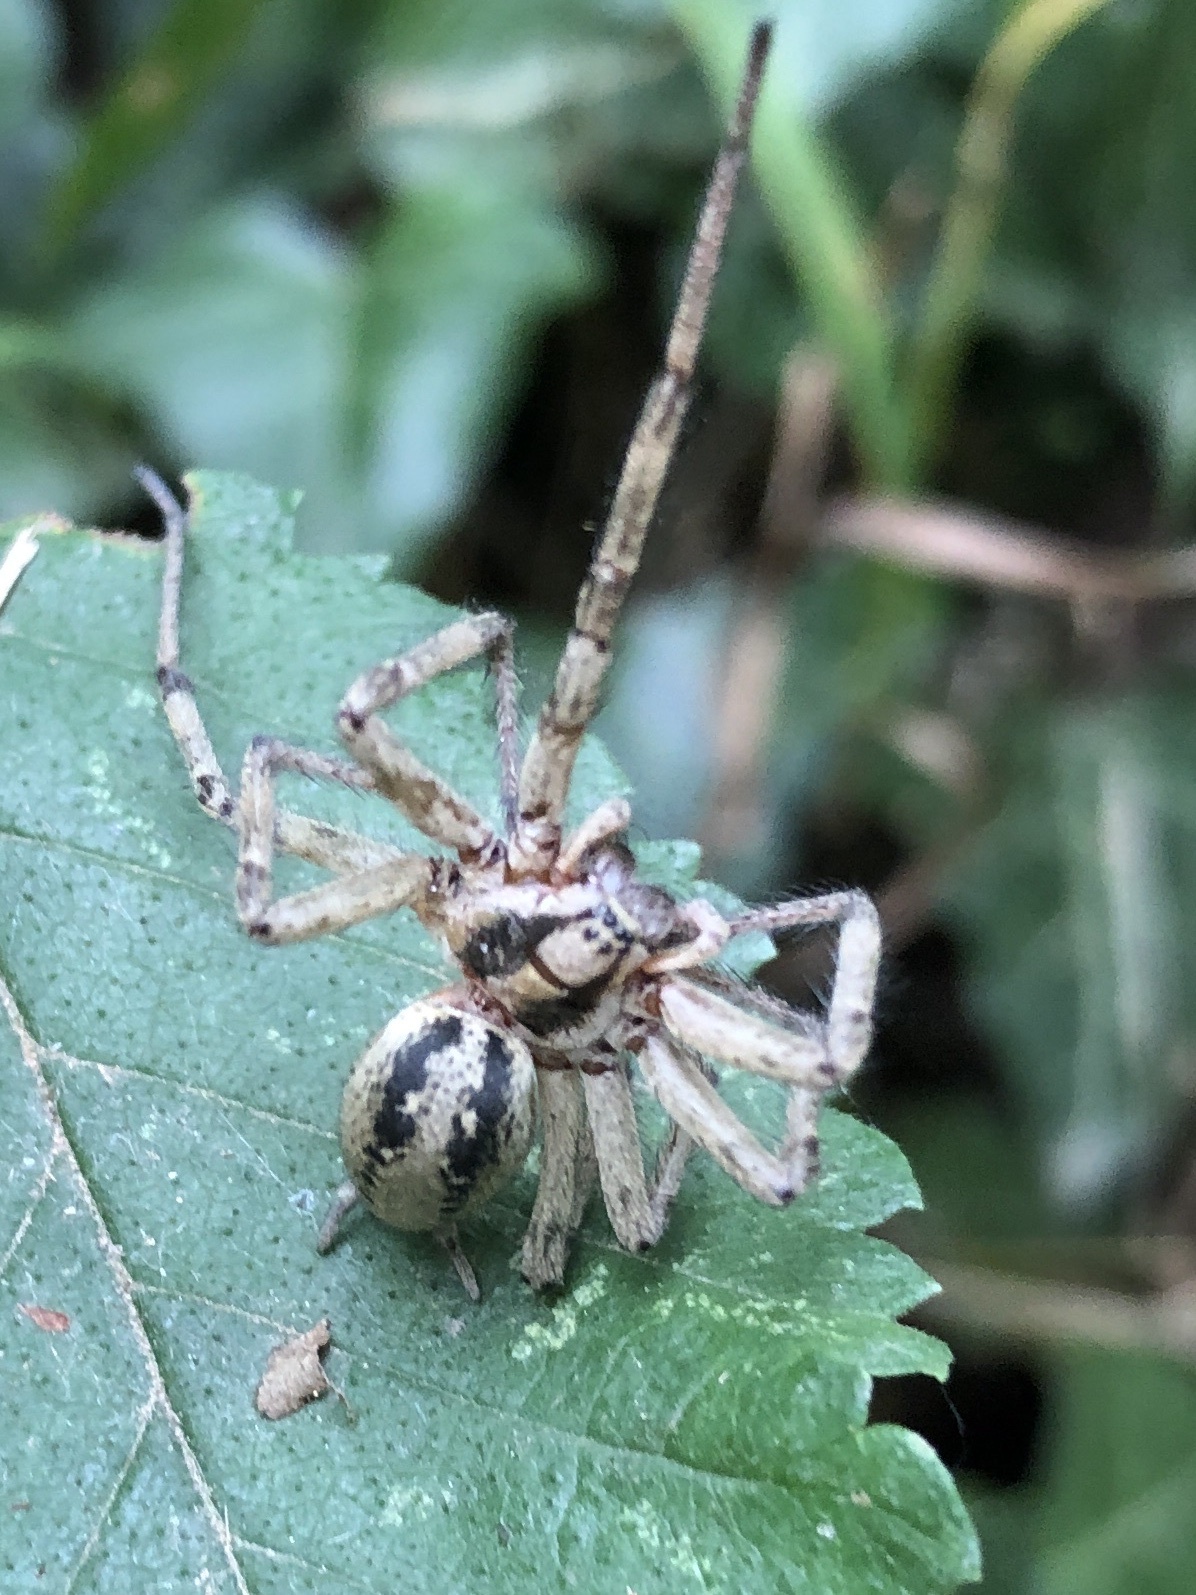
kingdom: Animalia
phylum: Arthropoda
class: Arachnida
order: Araneae
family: Agelenidae
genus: Agelena
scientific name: Agelena labyrinthica
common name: Labyrinth spider
